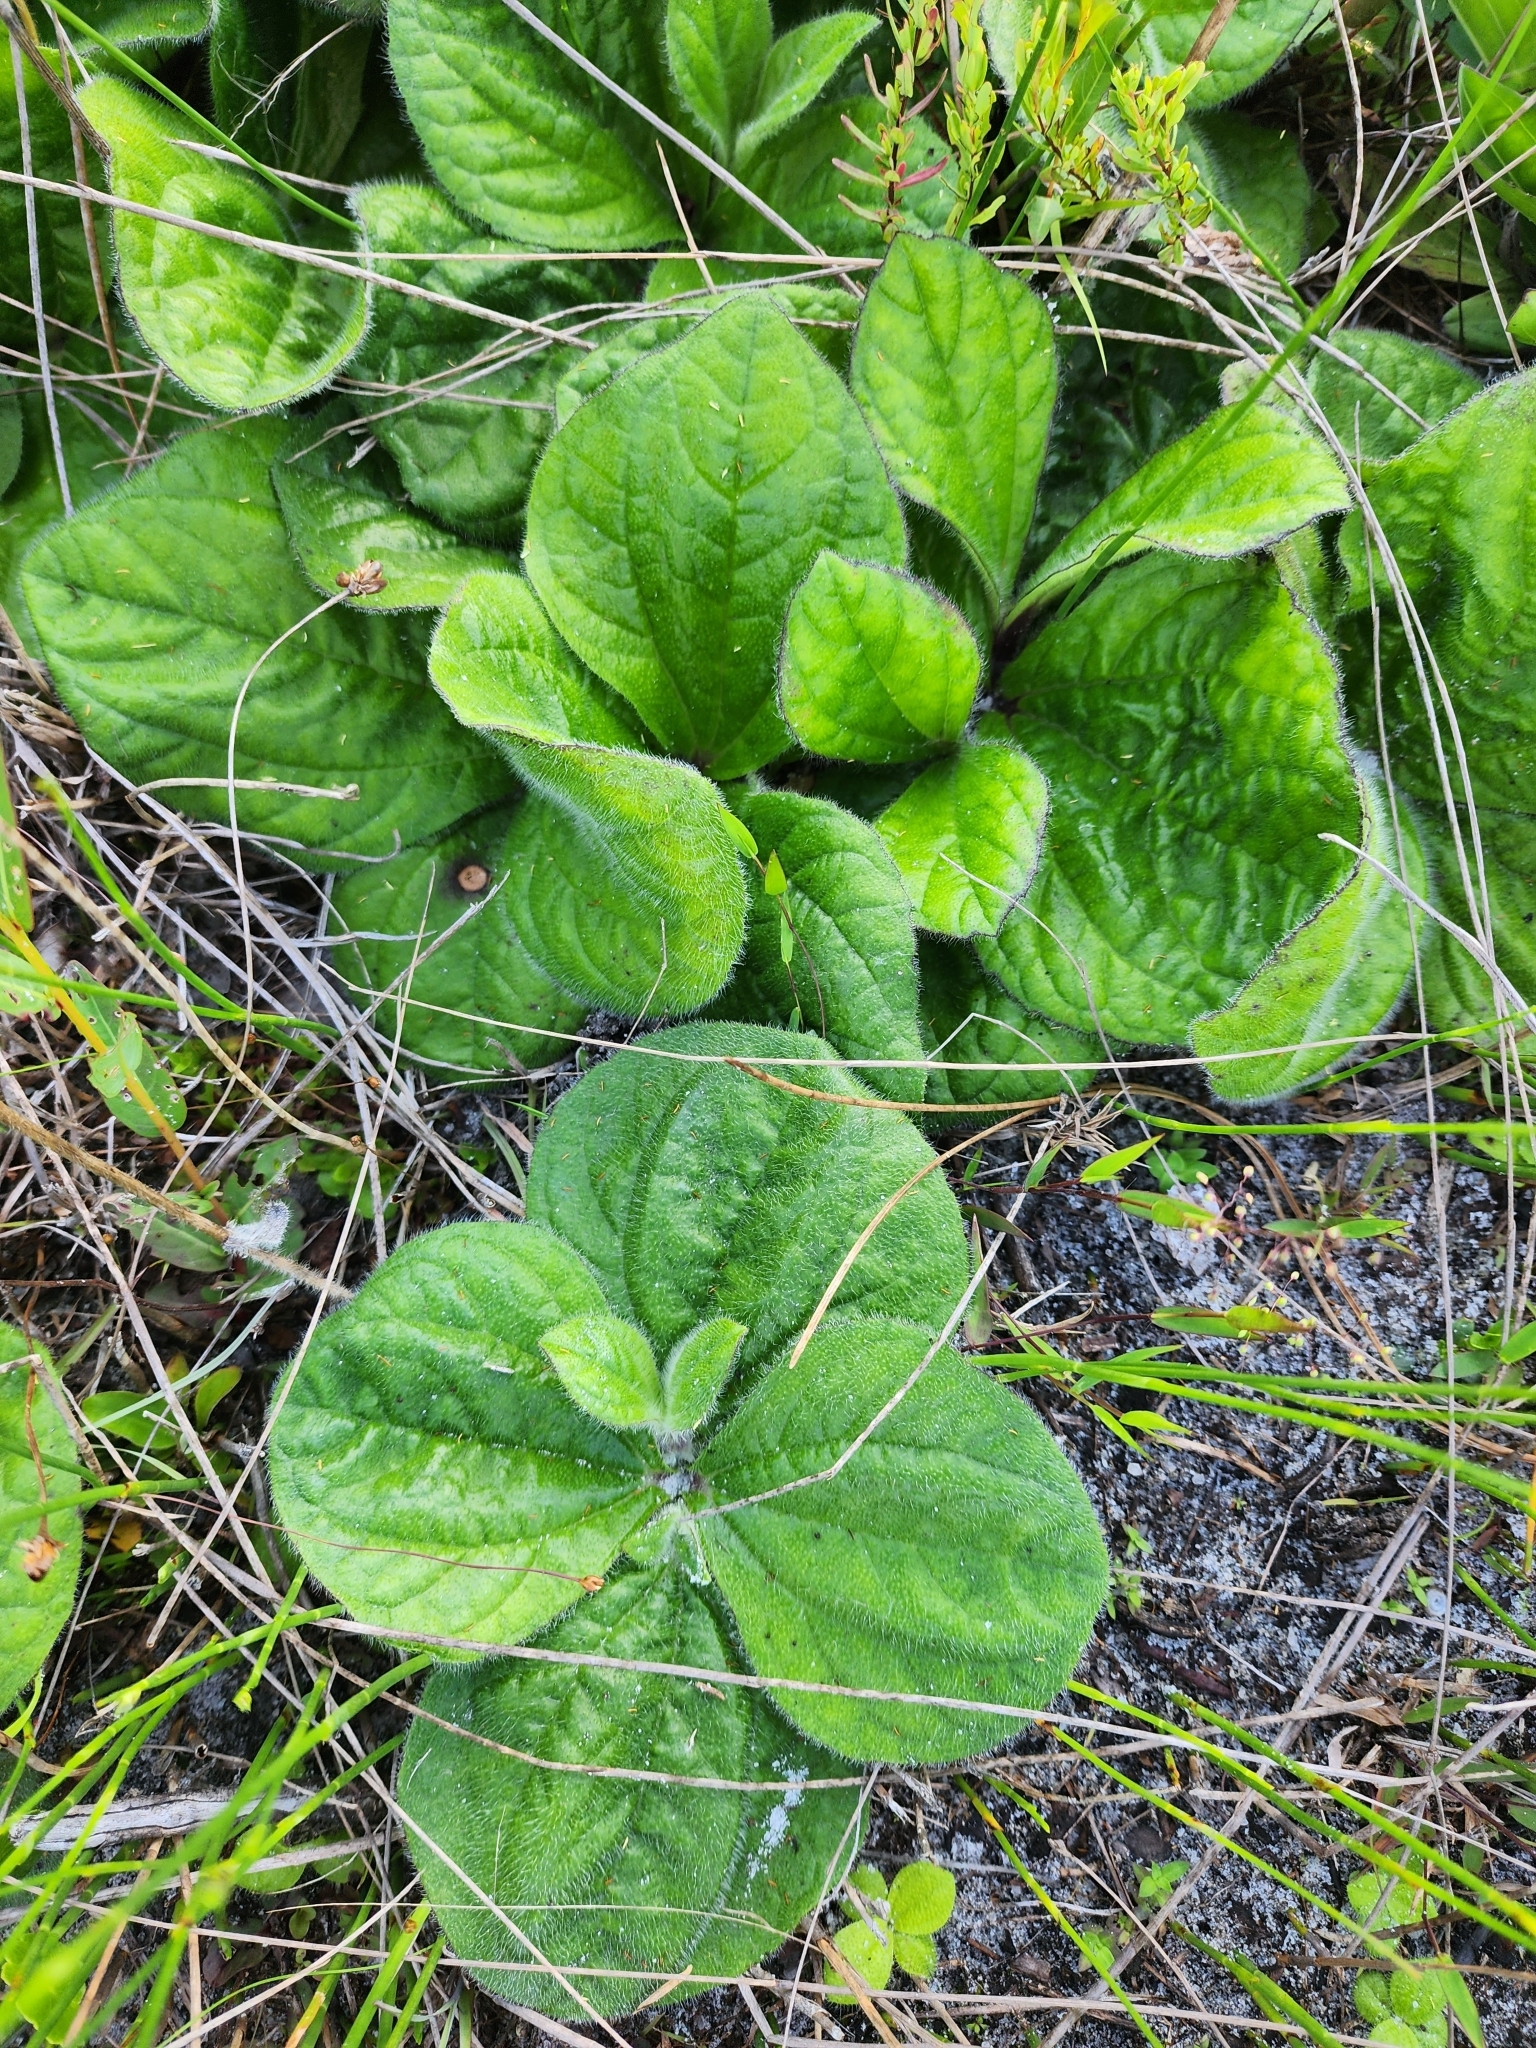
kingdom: Plantae
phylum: Tracheophyta
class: Magnoliopsida
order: Asterales
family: Asteraceae
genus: Helianthus
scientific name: Helianthus radula
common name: Pineland sunflower
